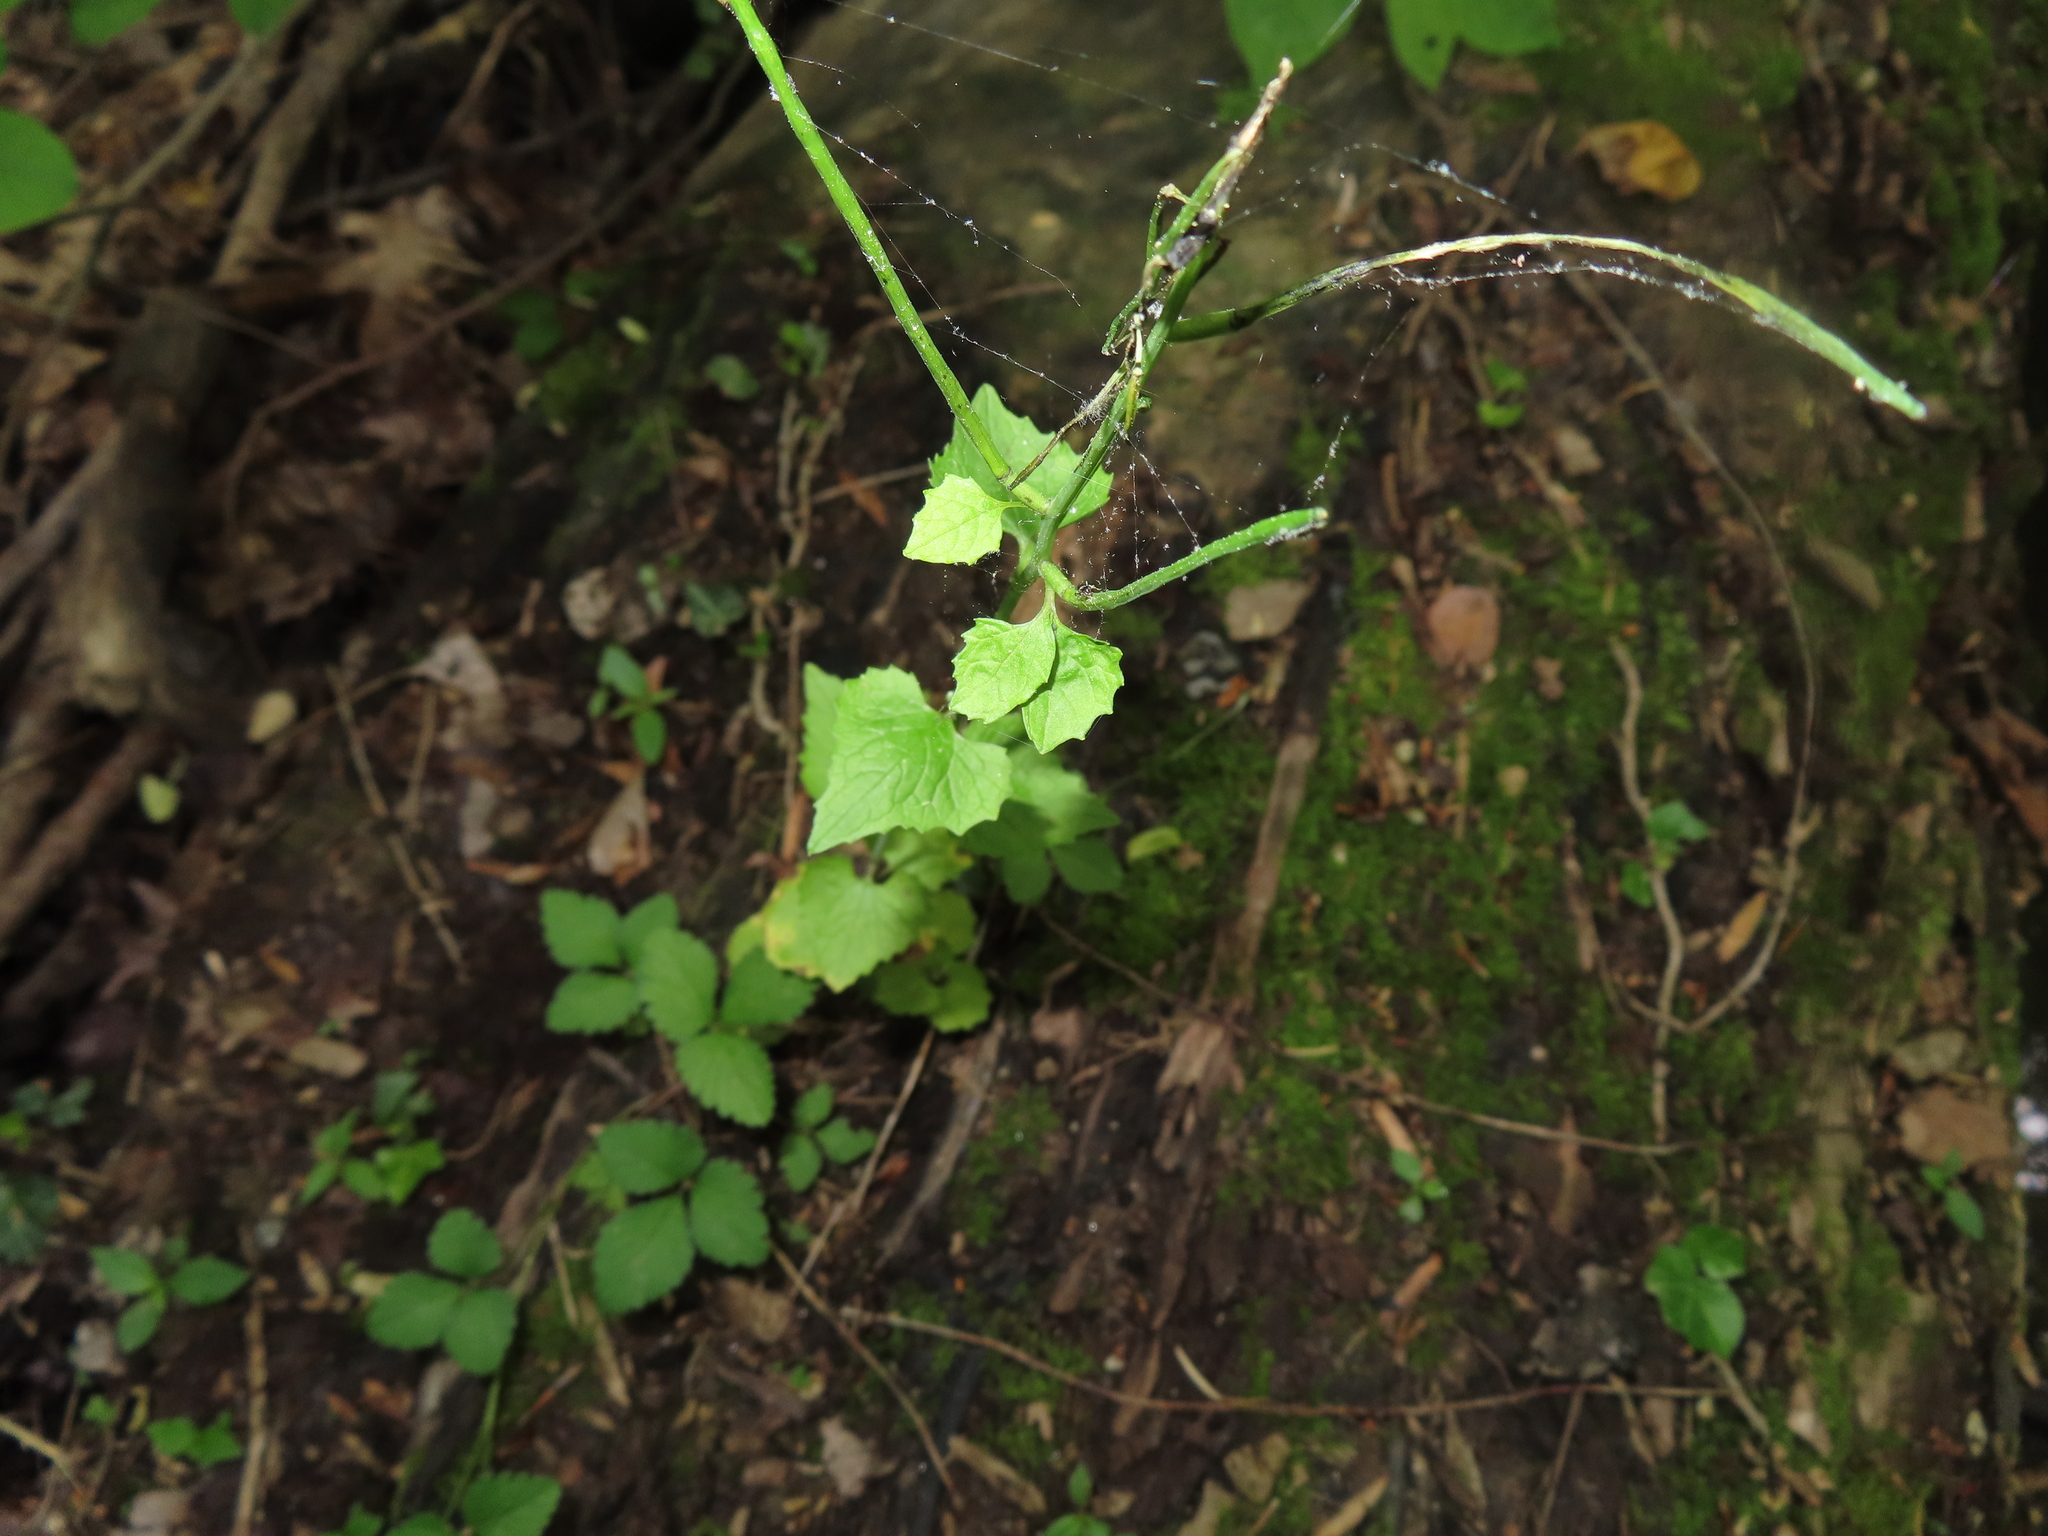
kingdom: Plantae
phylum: Tracheophyta
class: Magnoliopsida
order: Brassicales
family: Brassicaceae
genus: Alliaria
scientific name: Alliaria petiolata
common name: Garlic mustard
